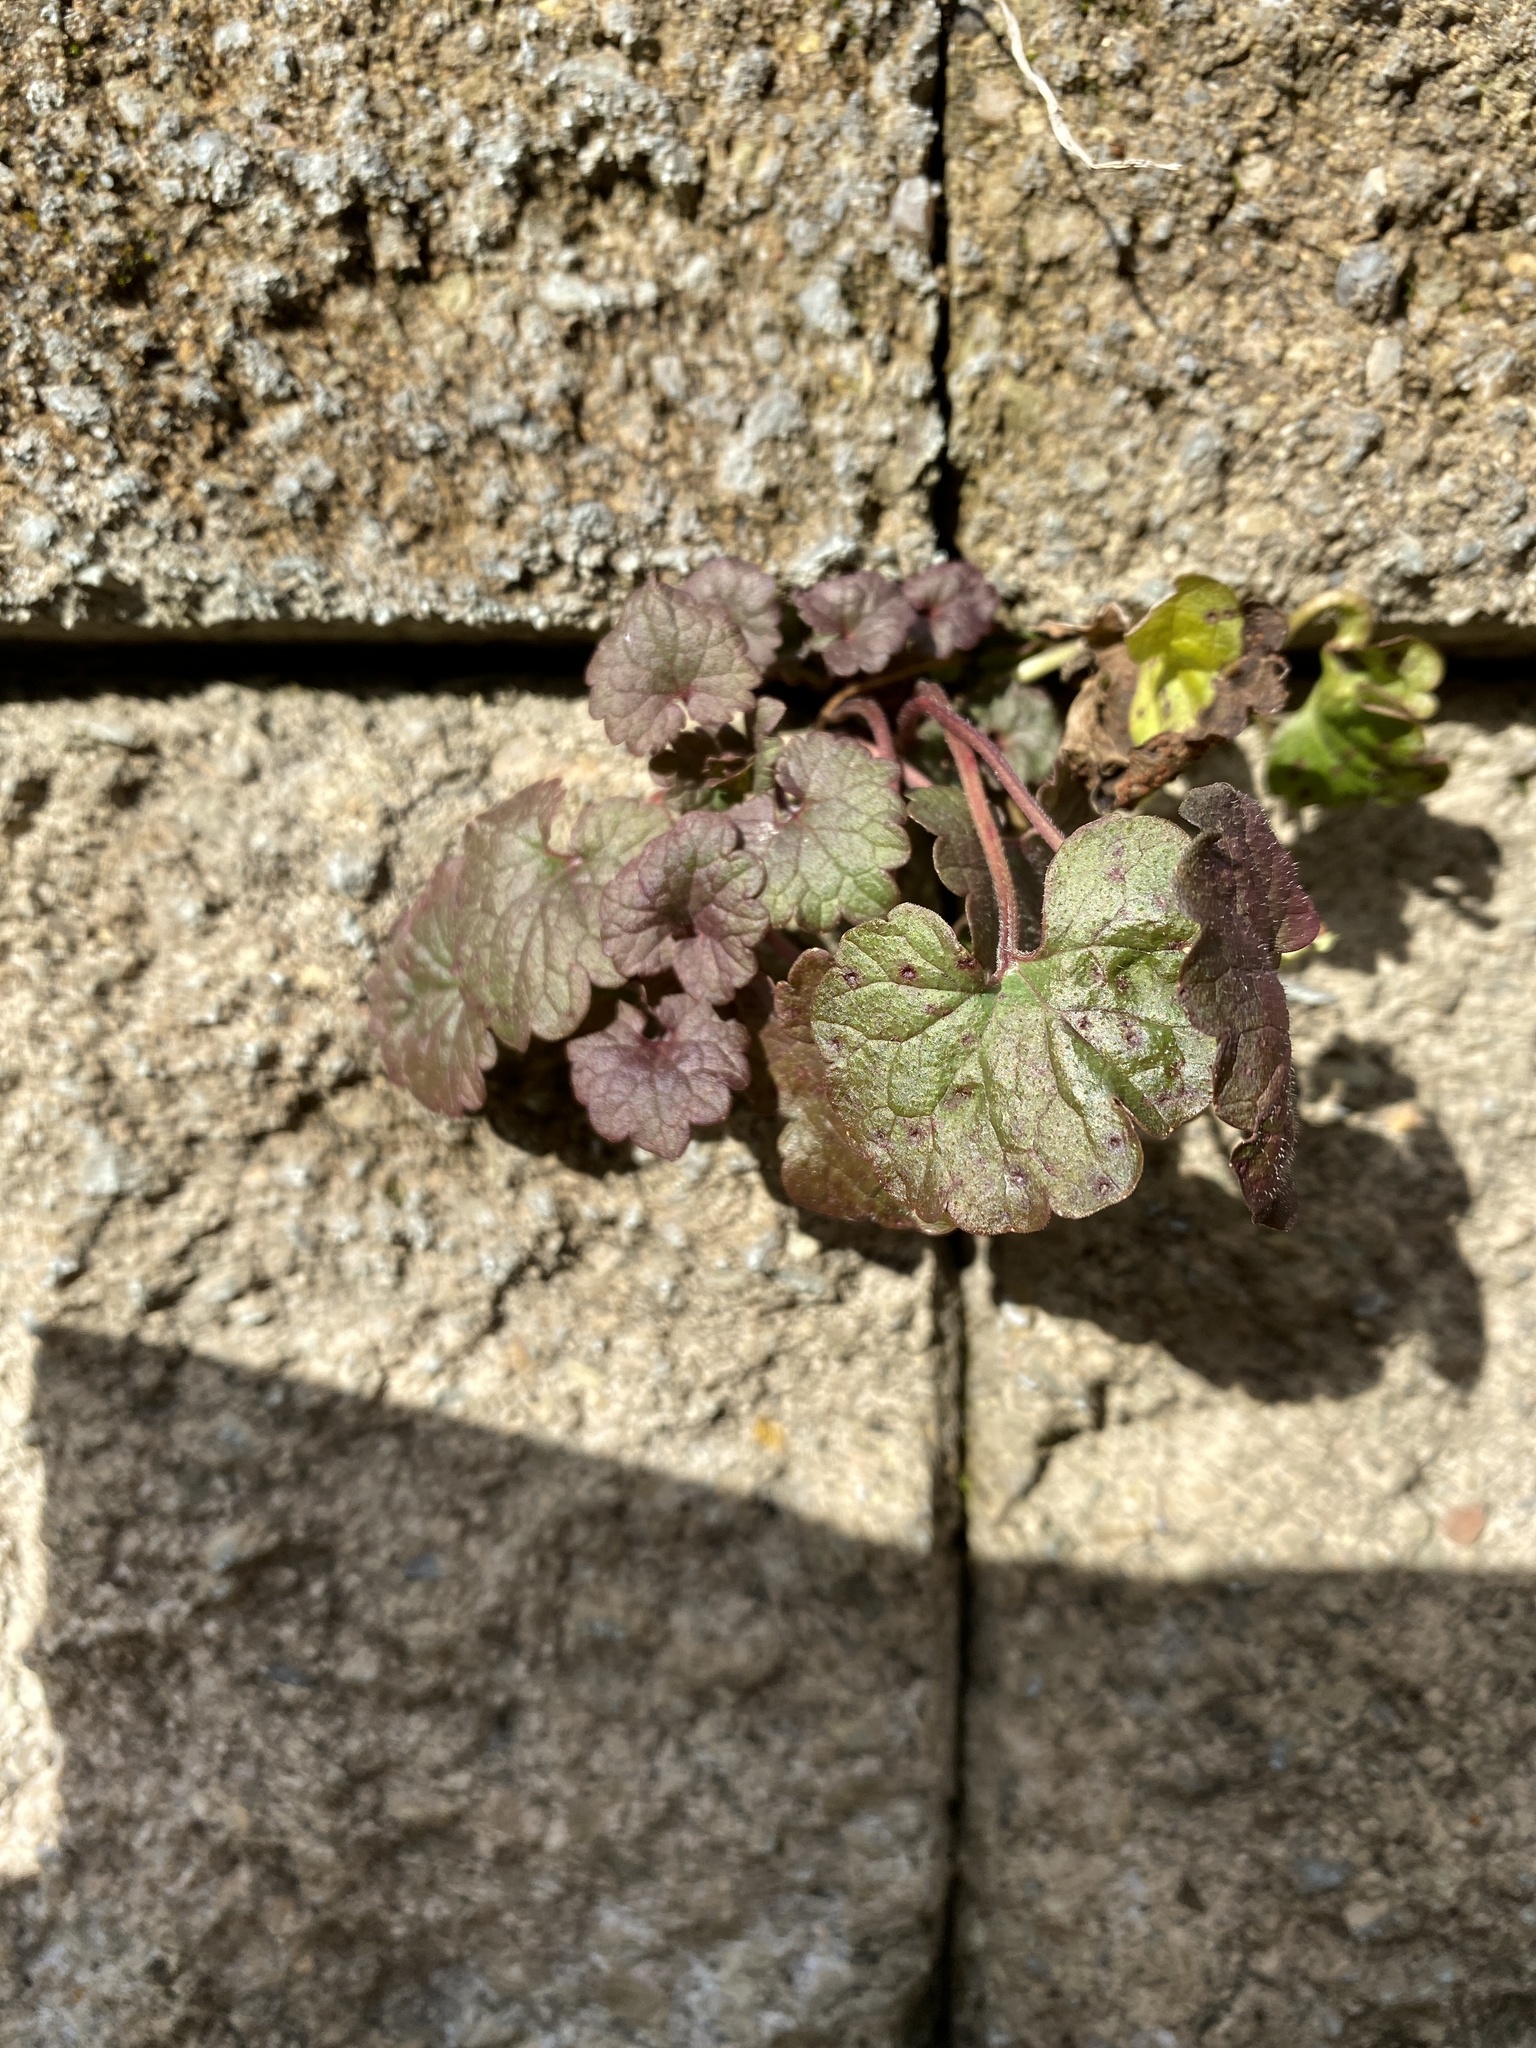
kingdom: Plantae
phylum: Tracheophyta
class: Magnoliopsida
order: Lamiales
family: Lamiaceae
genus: Glechoma
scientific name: Glechoma hederacea
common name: Ground ivy
